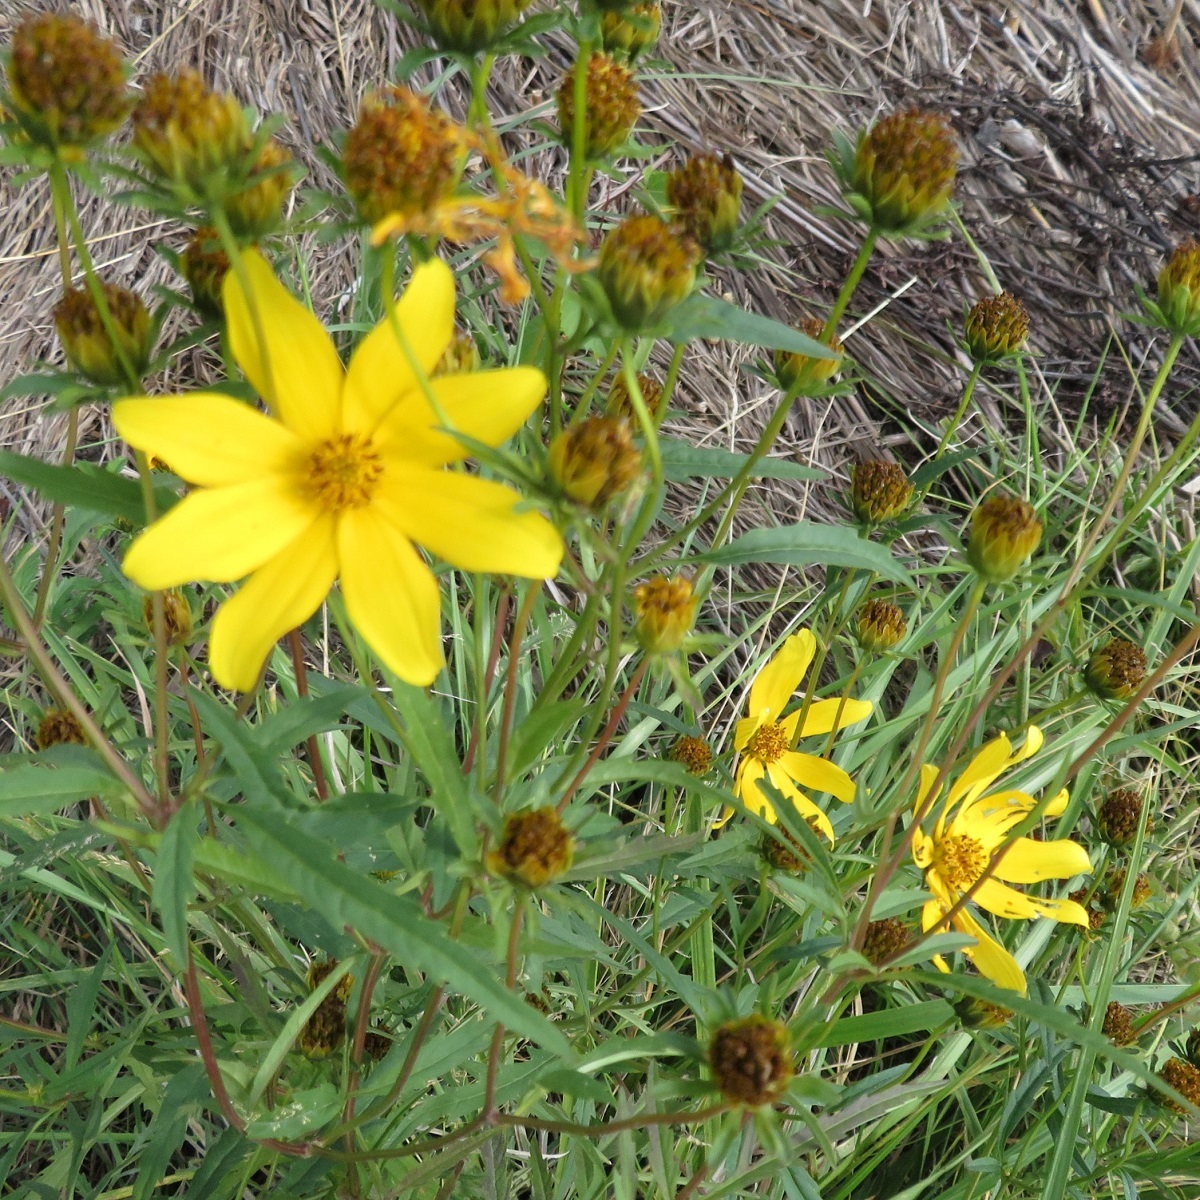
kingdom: Plantae
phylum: Tracheophyta
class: Magnoliopsida
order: Asterales
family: Asteraceae
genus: Bidens
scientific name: Bidens trichosperma
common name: Crowned beggarticks
